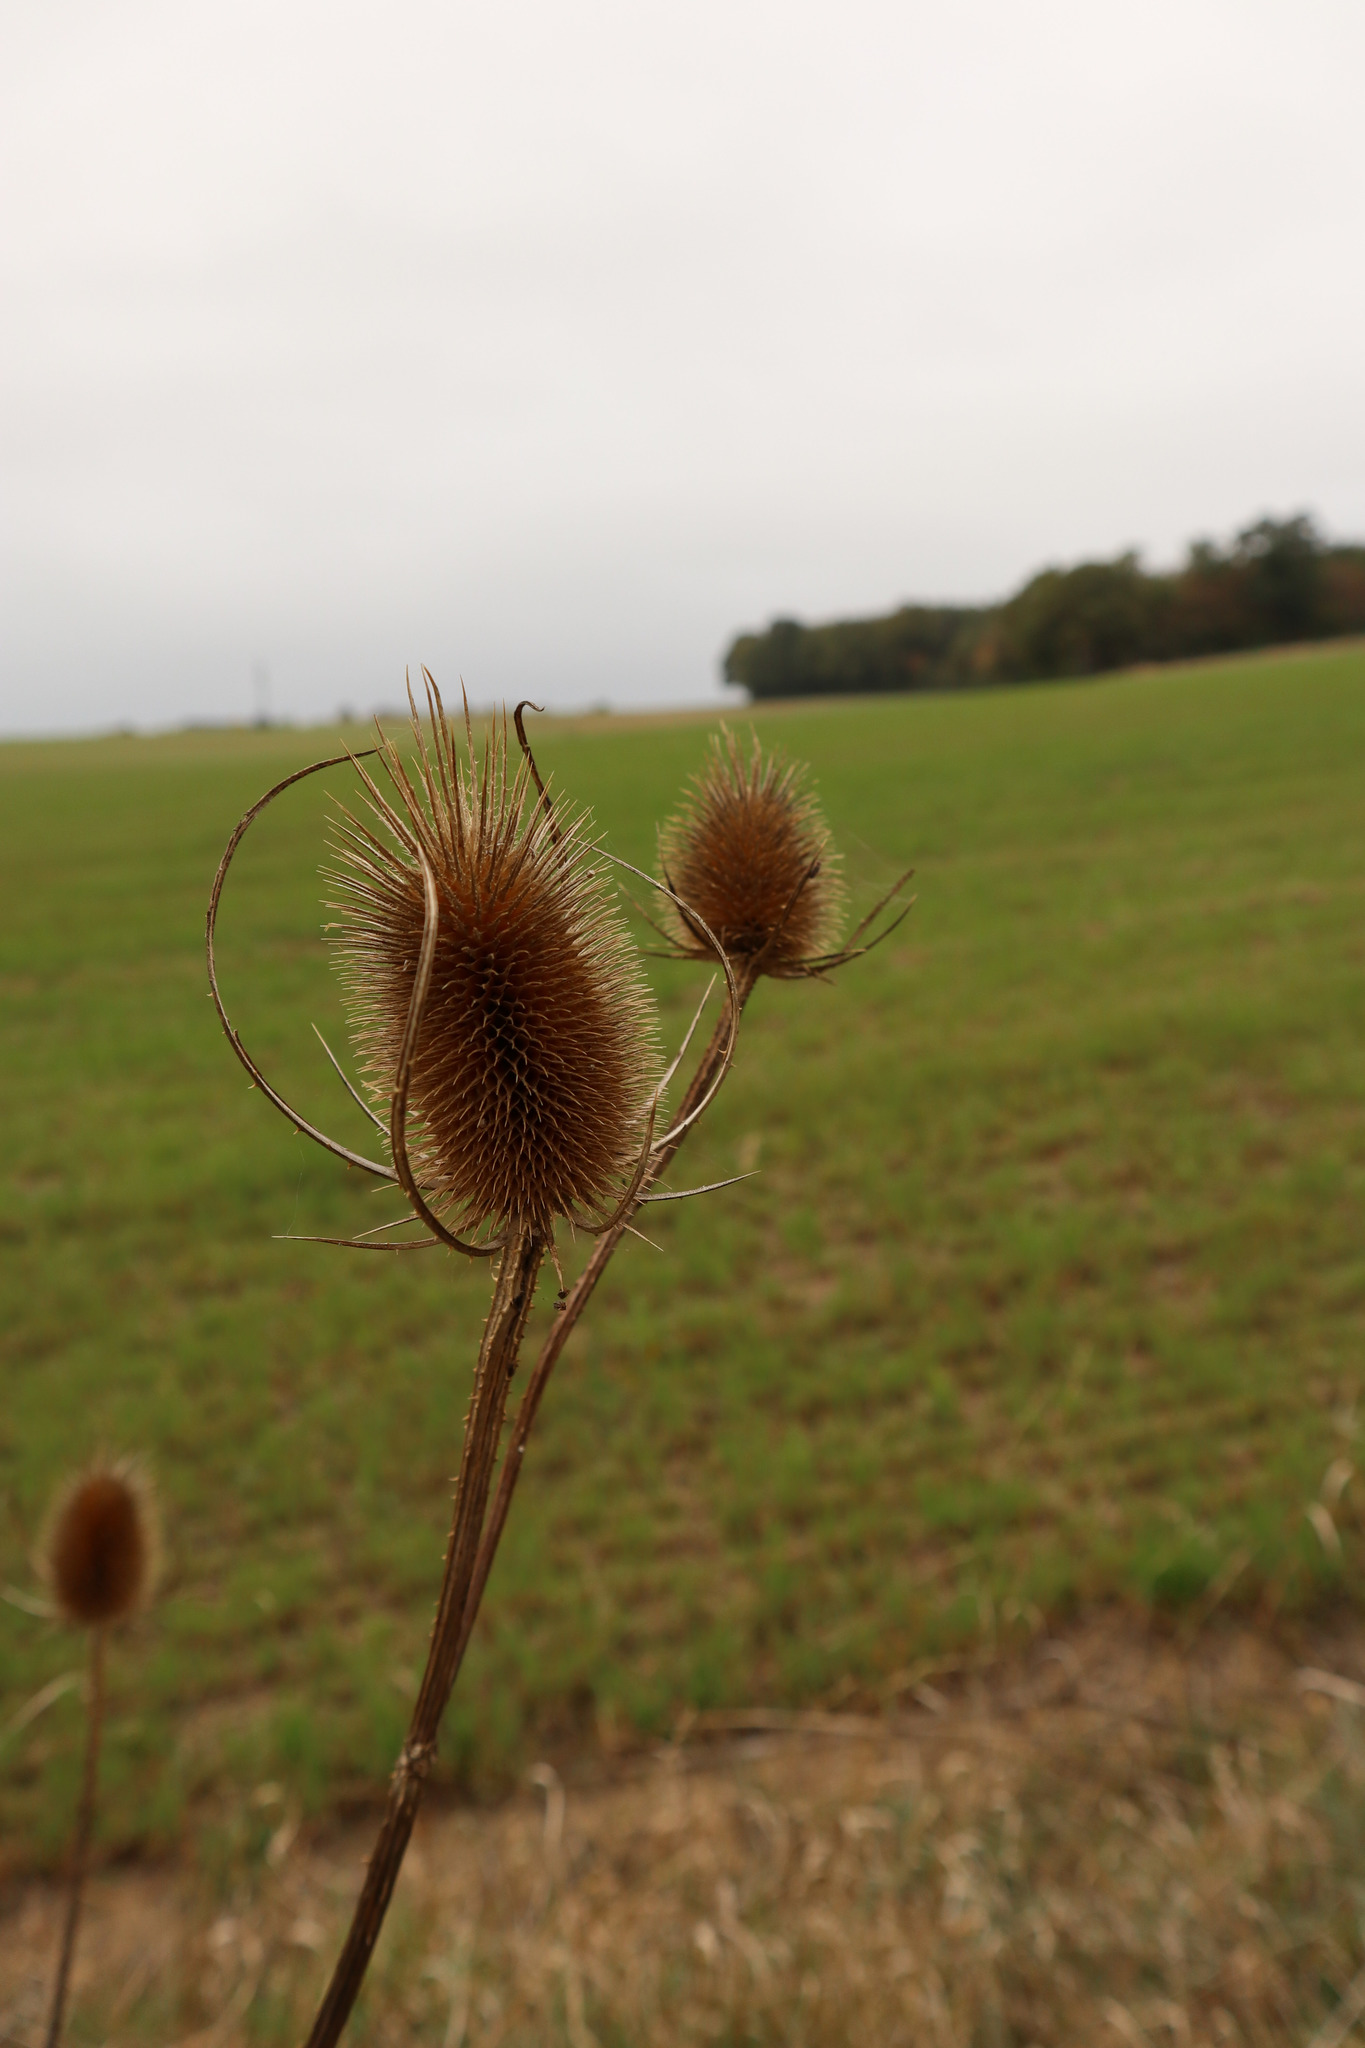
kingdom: Plantae
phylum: Tracheophyta
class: Magnoliopsida
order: Dipsacales
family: Caprifoliaceae
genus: Dipsacus
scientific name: Dipsacus fullonum
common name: Teasel
